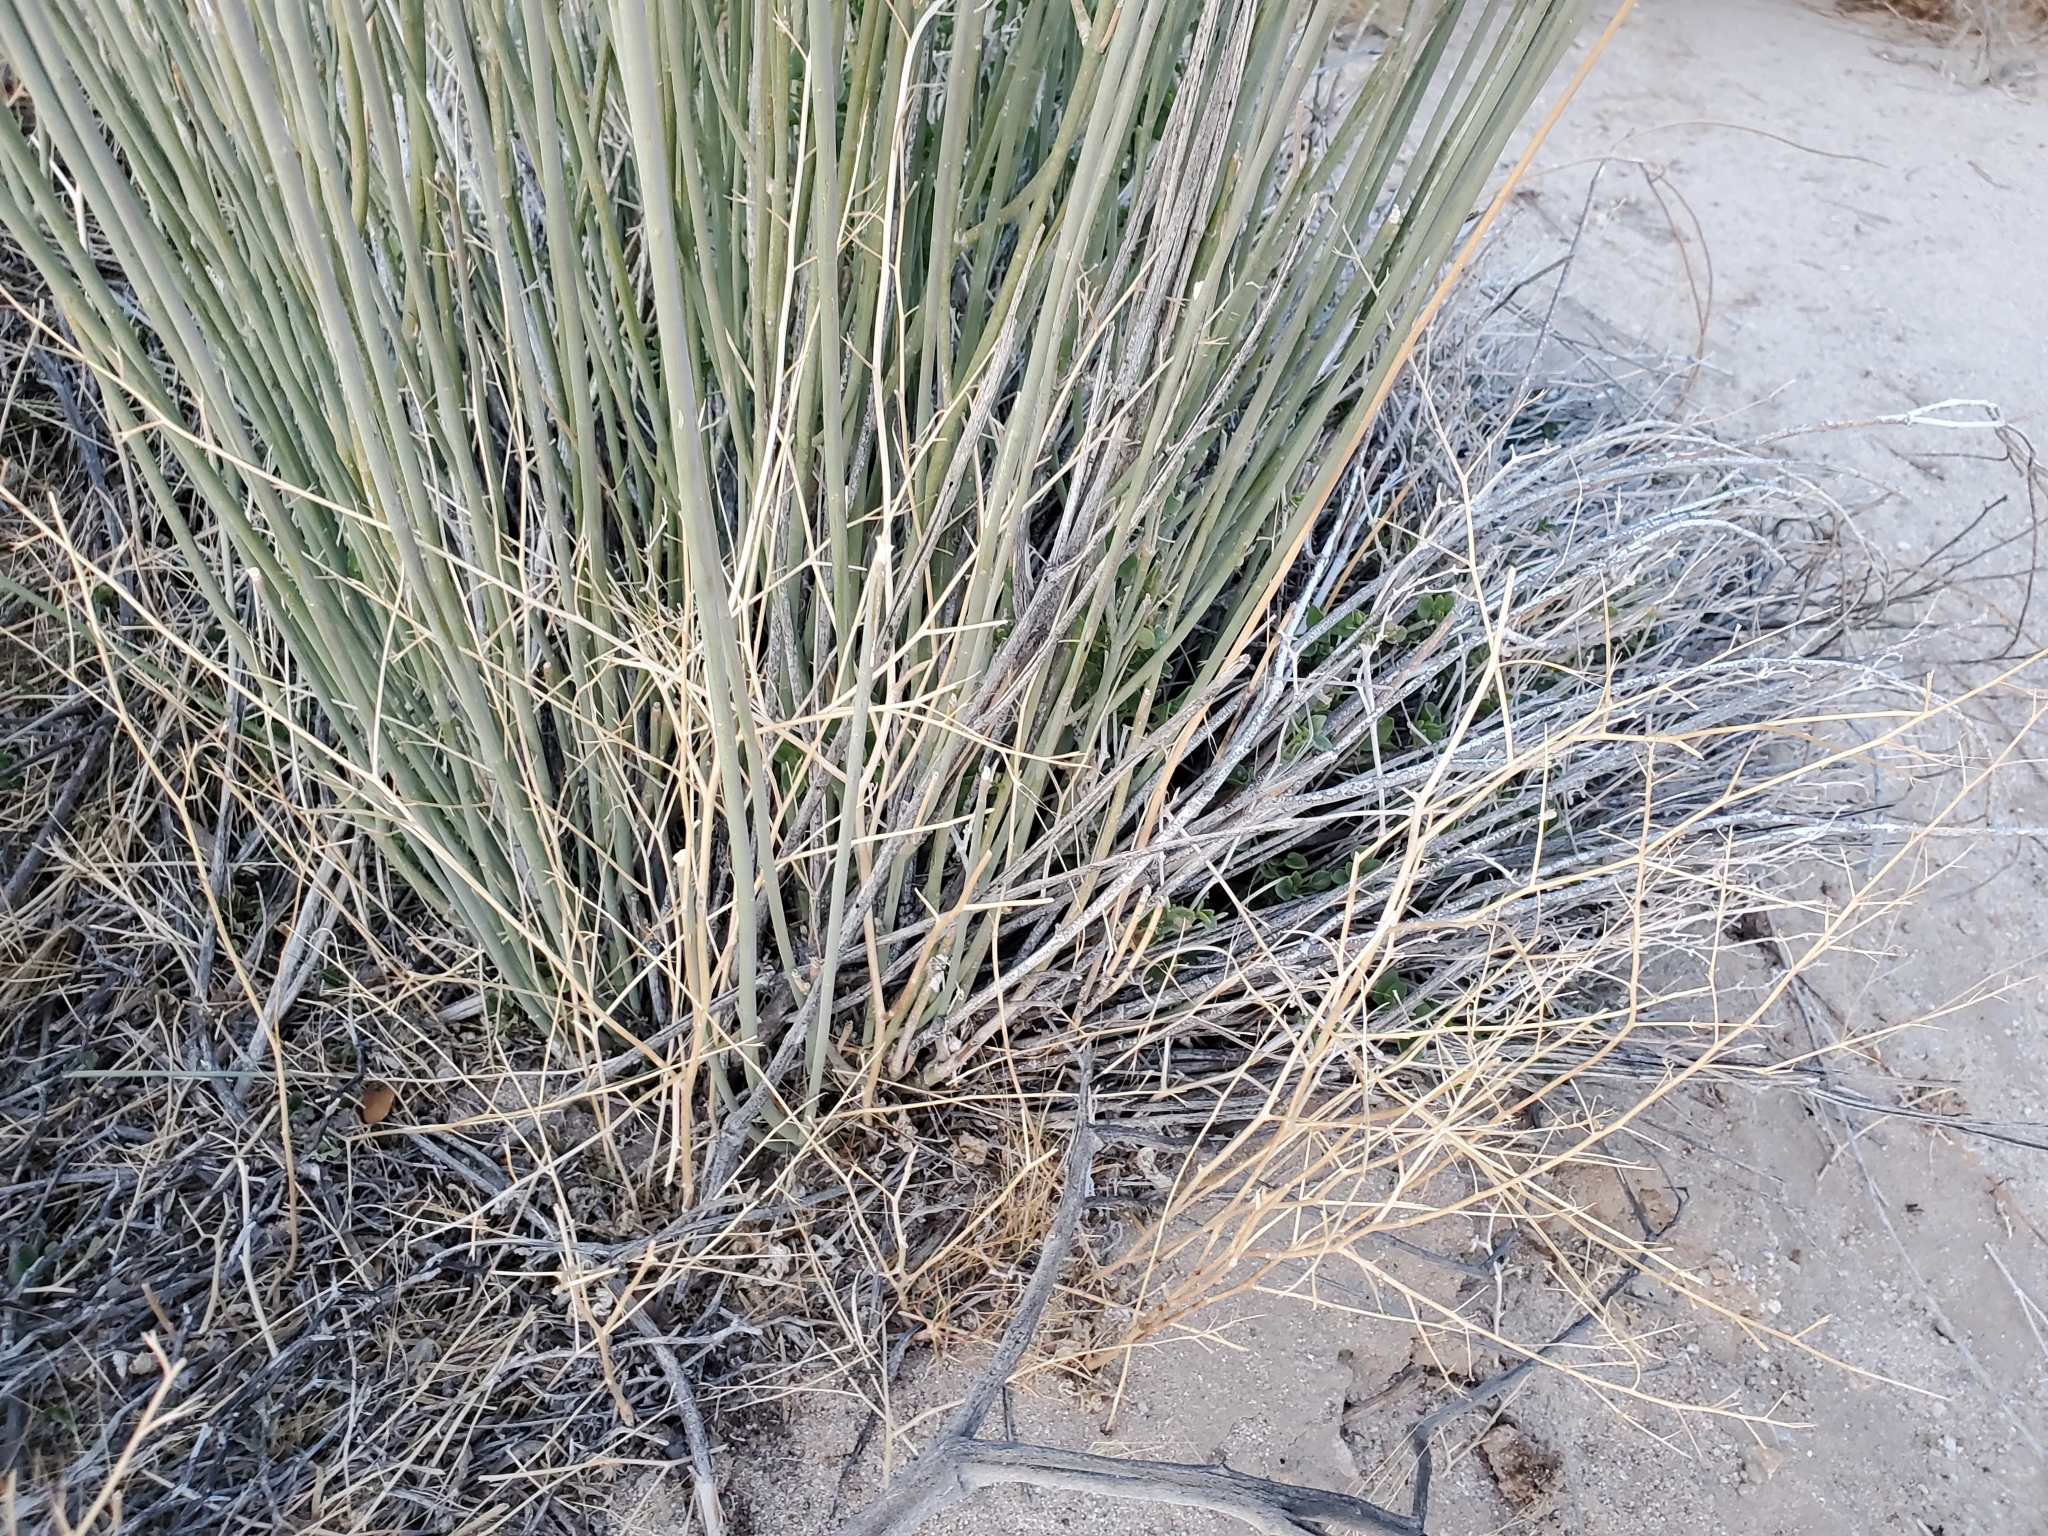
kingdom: Plantae
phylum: Tracheophyta
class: Magnoliopsida
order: Gentianales
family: Apocynaceae
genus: Asclepias
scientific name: Asclepias subulata
